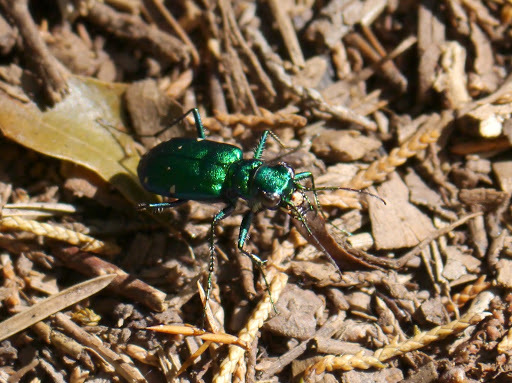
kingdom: Animalia
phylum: Arthropoda
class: Insecta
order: Coleoptera
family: Carabidae
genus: Cicindela
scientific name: Cicindela sexguttata
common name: Six-spotted tiger beetle
